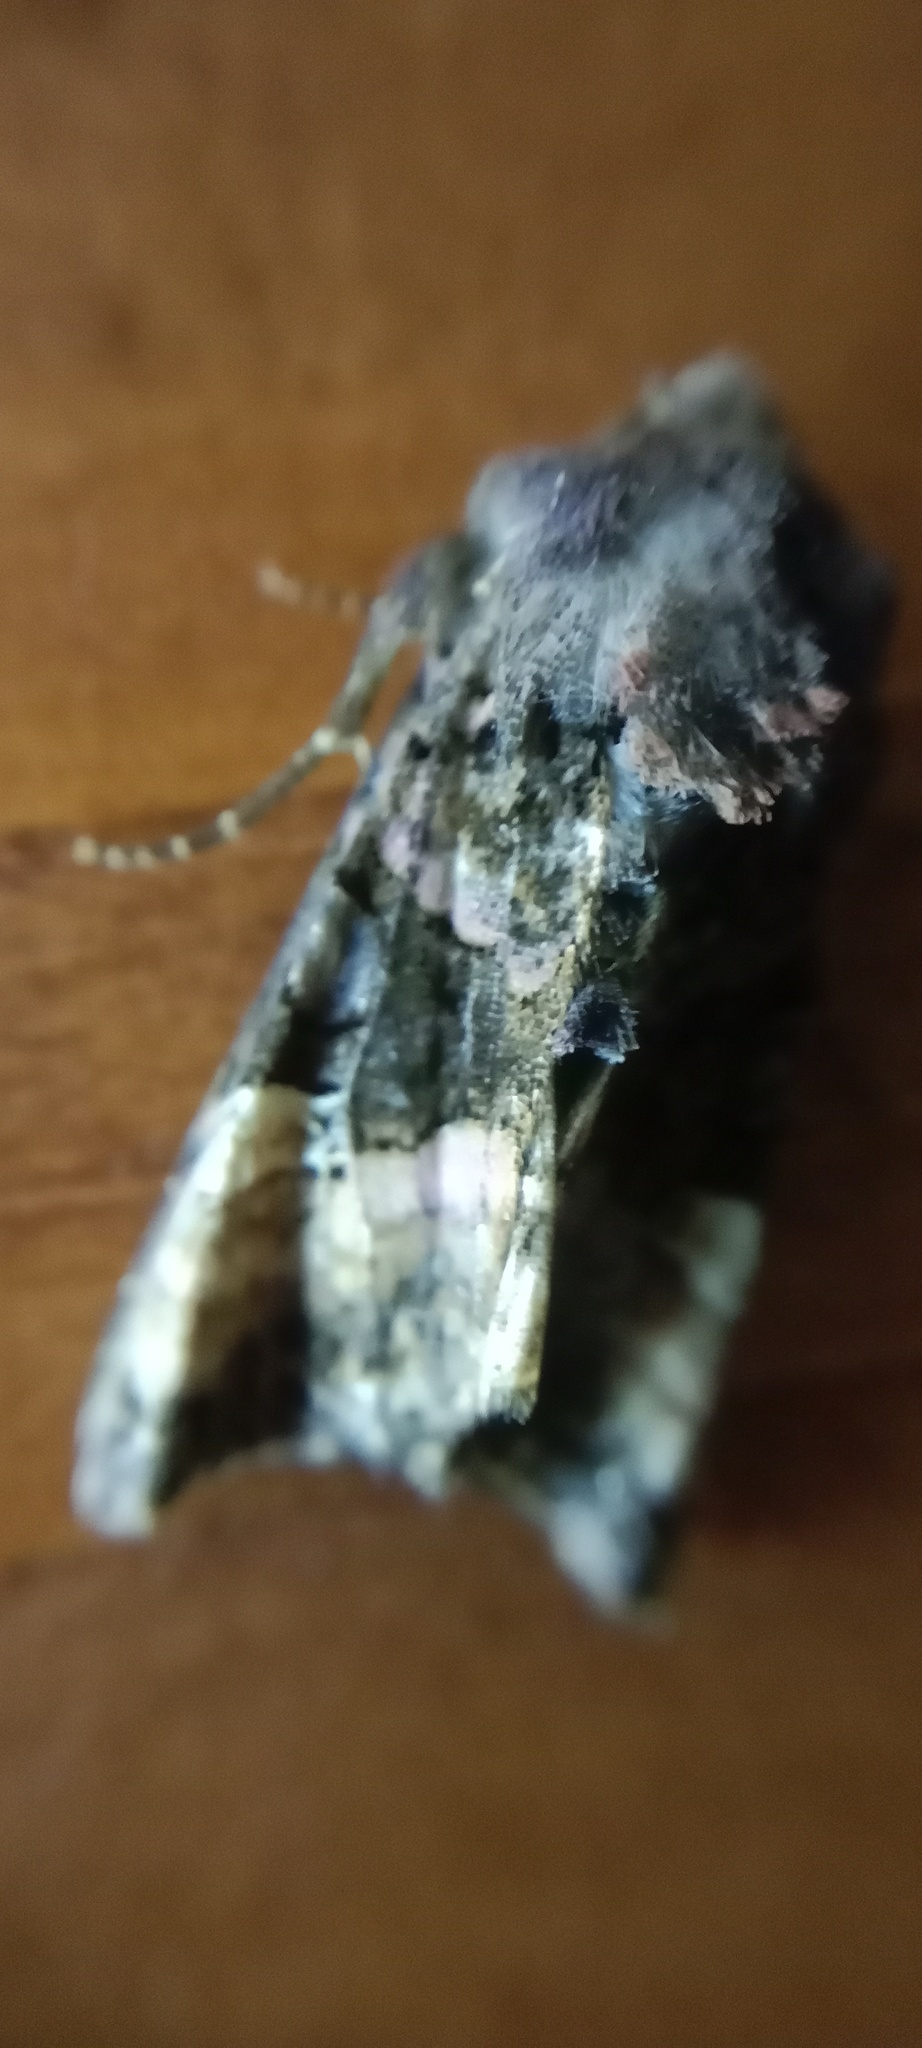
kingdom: Animalia
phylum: Arthropoda
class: Insecta
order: Lepidoptera
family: Noctuidae
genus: Euplexia
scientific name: Euplexia lucipara
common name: Small angle shades
